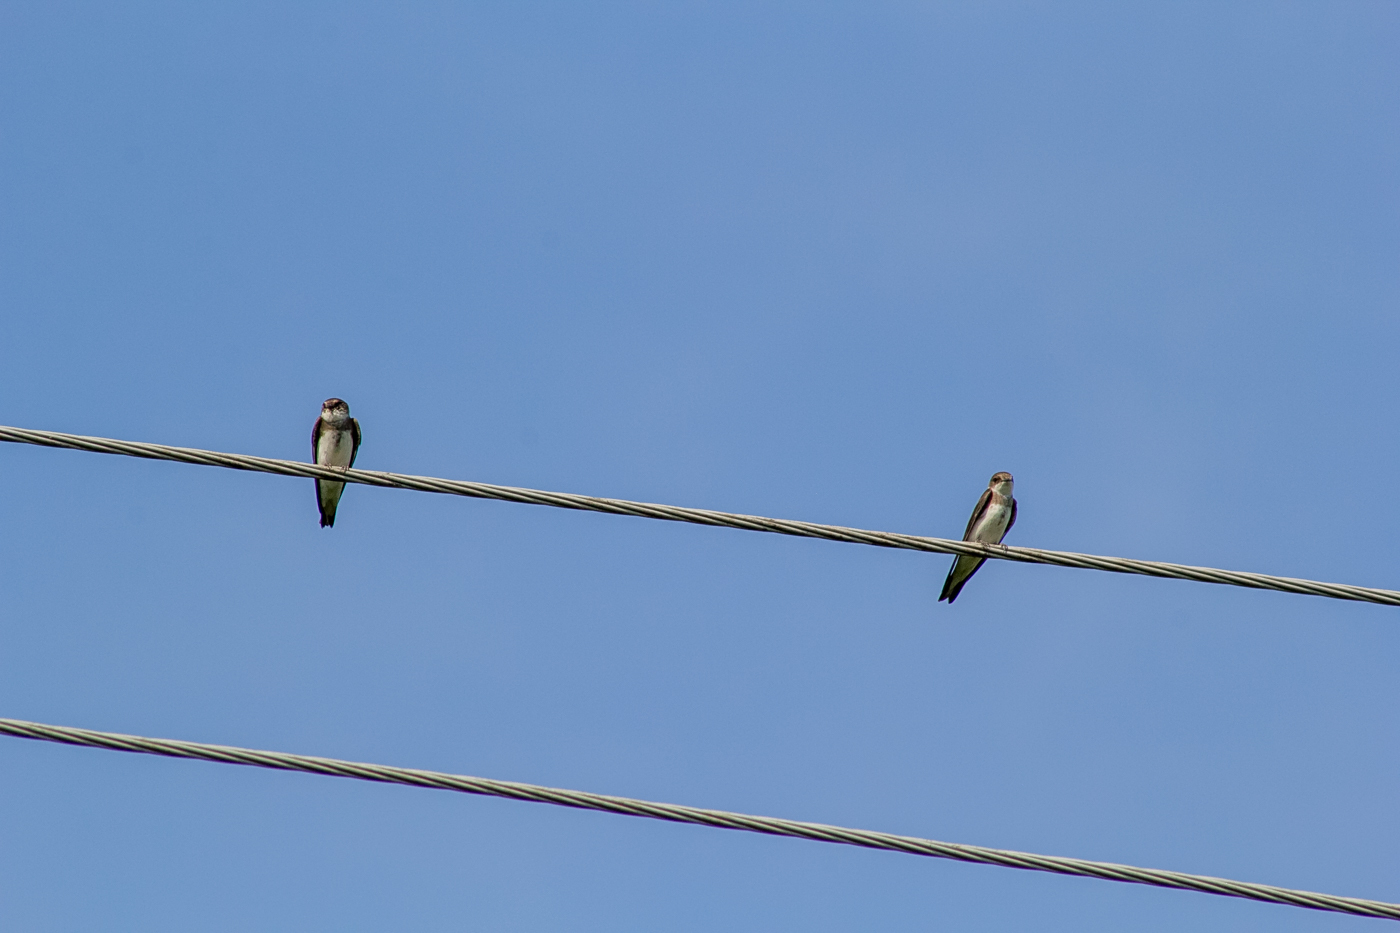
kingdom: Animalia
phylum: Chordata
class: Aves
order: Passeriformes
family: Hirundinidae
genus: Riparia
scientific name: Riparia riparia
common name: Sand martin
